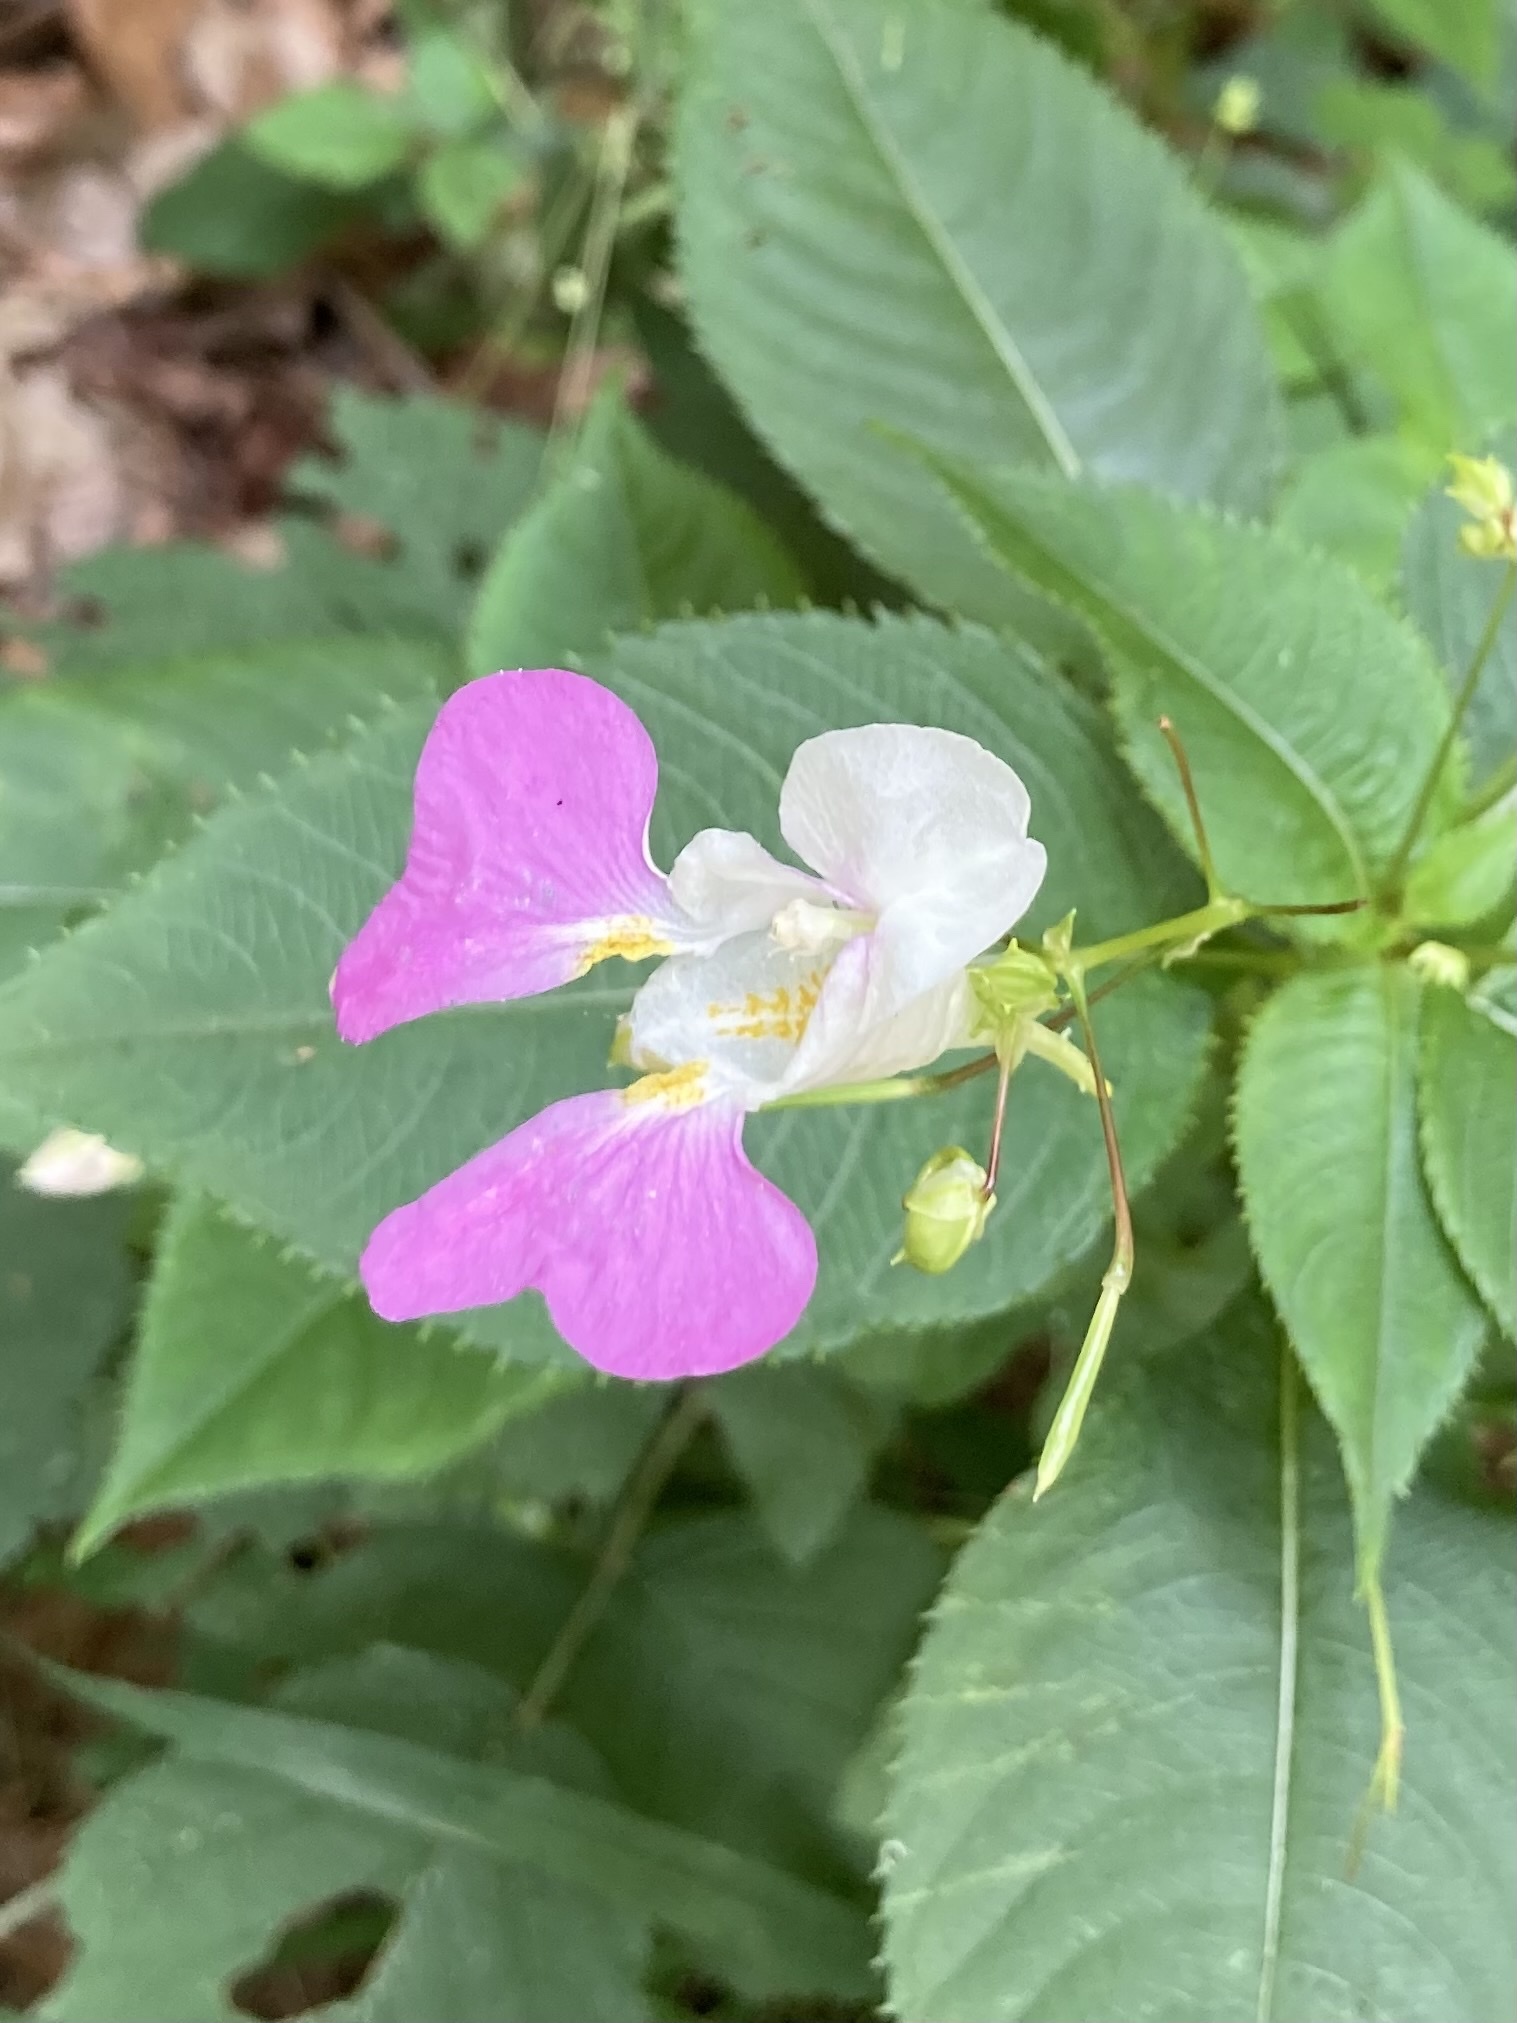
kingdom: Plantae
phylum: Tracheophyta
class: Magnoliopsida
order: Ericales
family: Balsaminaceae
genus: Impatiens
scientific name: Impatiens balfourii
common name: Balfour's touch-me-not
